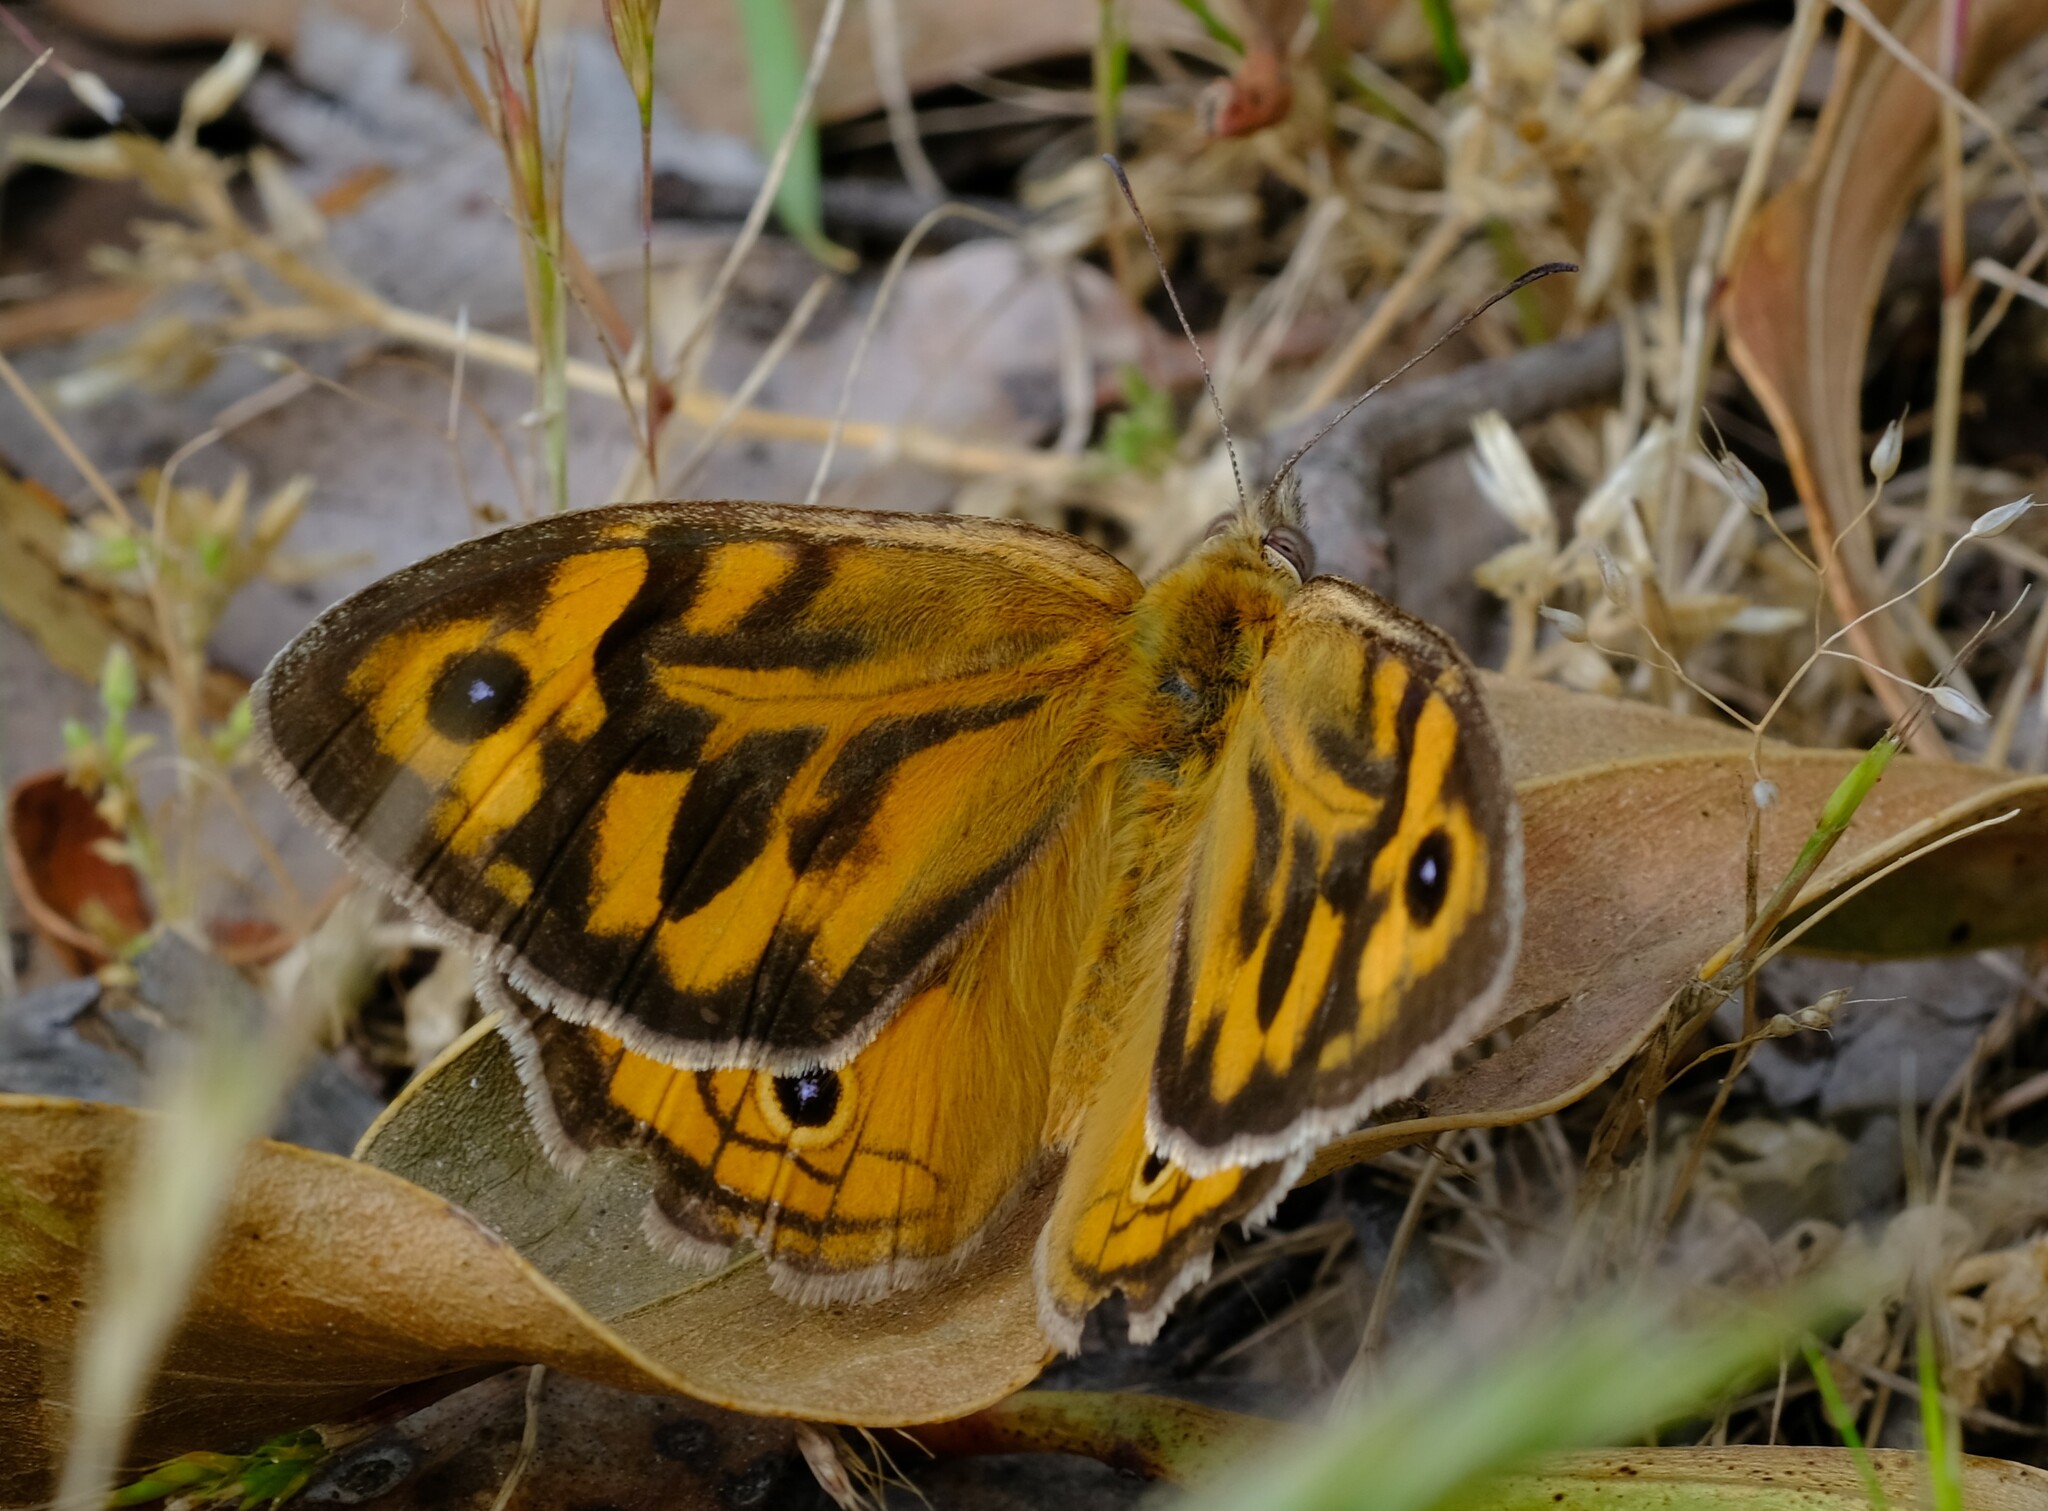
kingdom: Animalia
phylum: Arthropoda
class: Insecta
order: Lepidoptera
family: Nymphalidae
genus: Heteronympha
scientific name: Heteronympha merope
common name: Common brown
